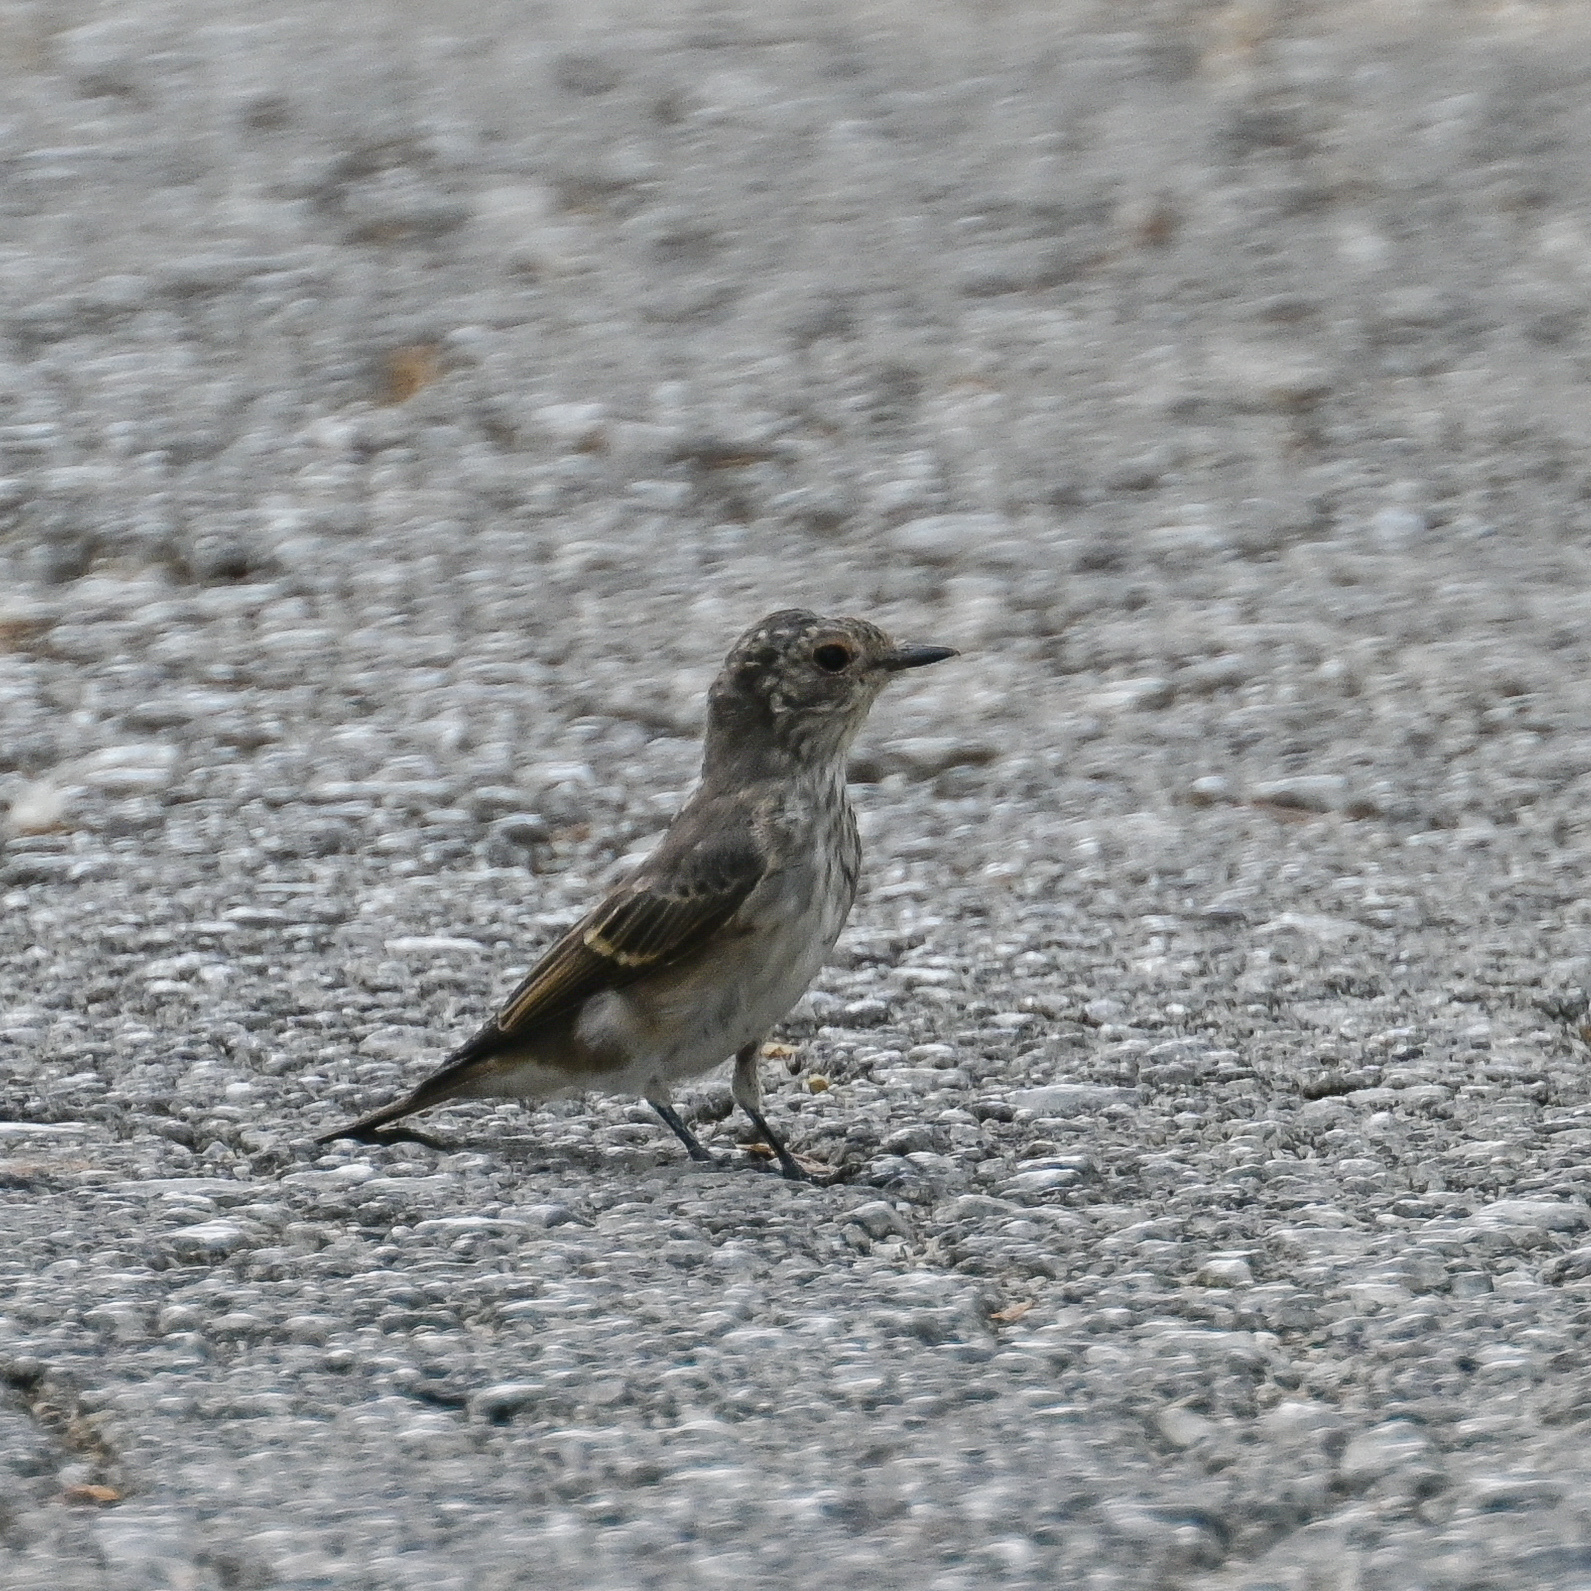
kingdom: Animalia
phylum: Chordata
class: Aves
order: Passeriformes
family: Muscicapidae
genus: Muscicapa
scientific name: Muscicapa striata
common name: Spotted flycatcher
